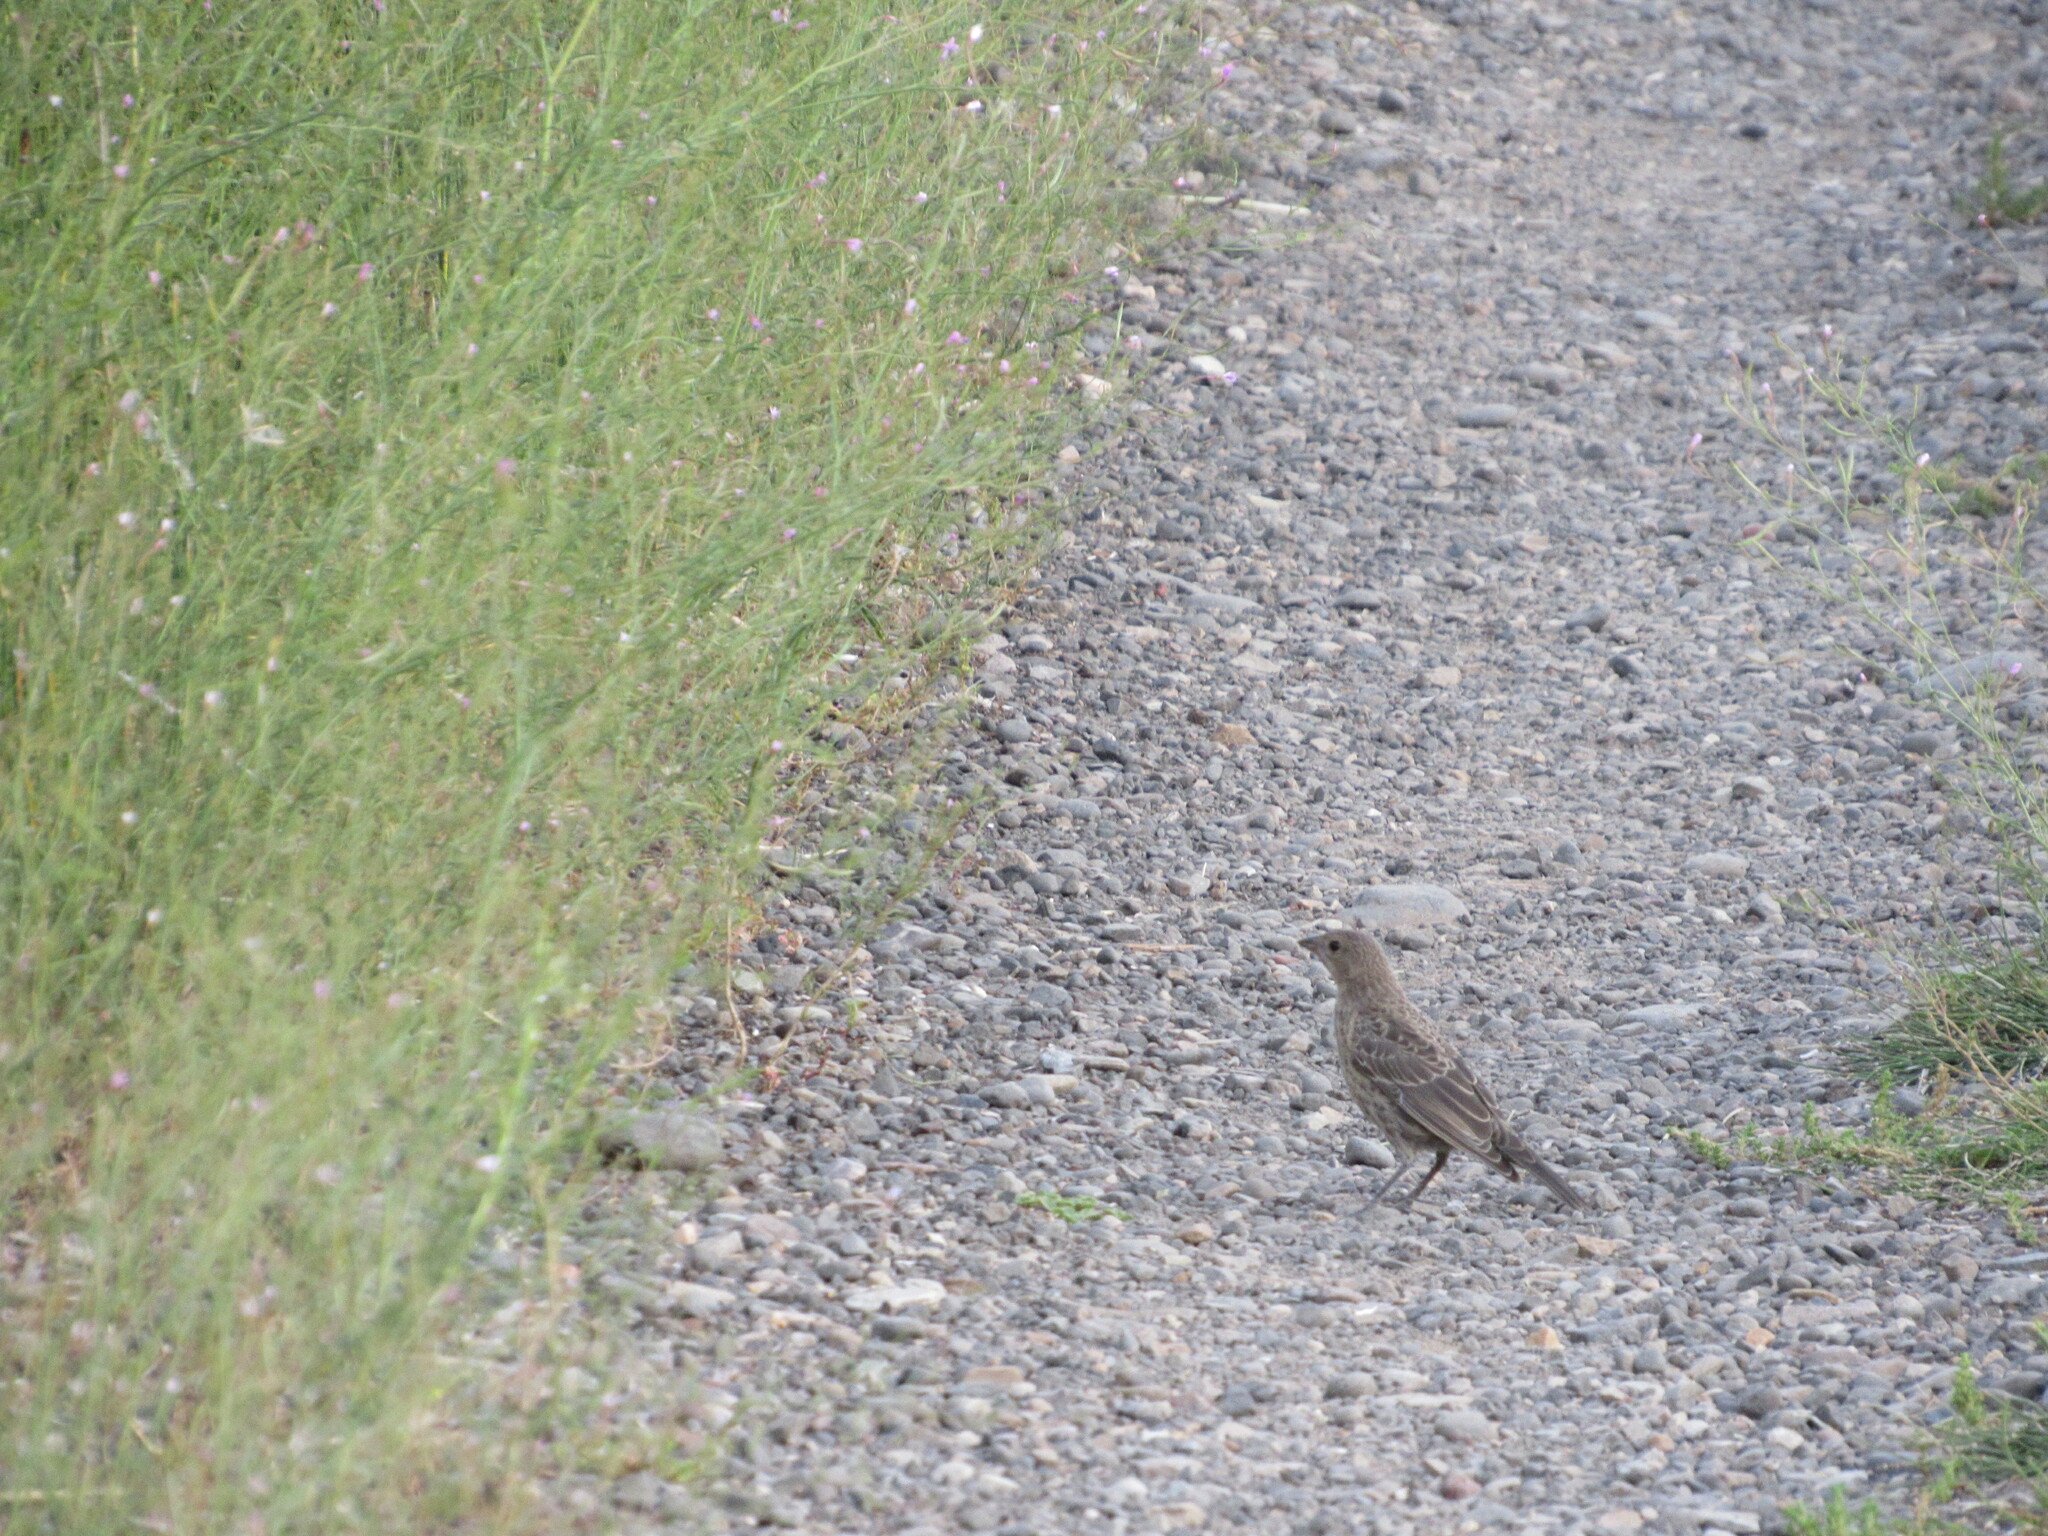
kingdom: Animalia
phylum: Chordata
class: Aves
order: Passeriformes
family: Icteridae
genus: Molothrus
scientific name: Molothrus ater
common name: Brown-headed cowbird
